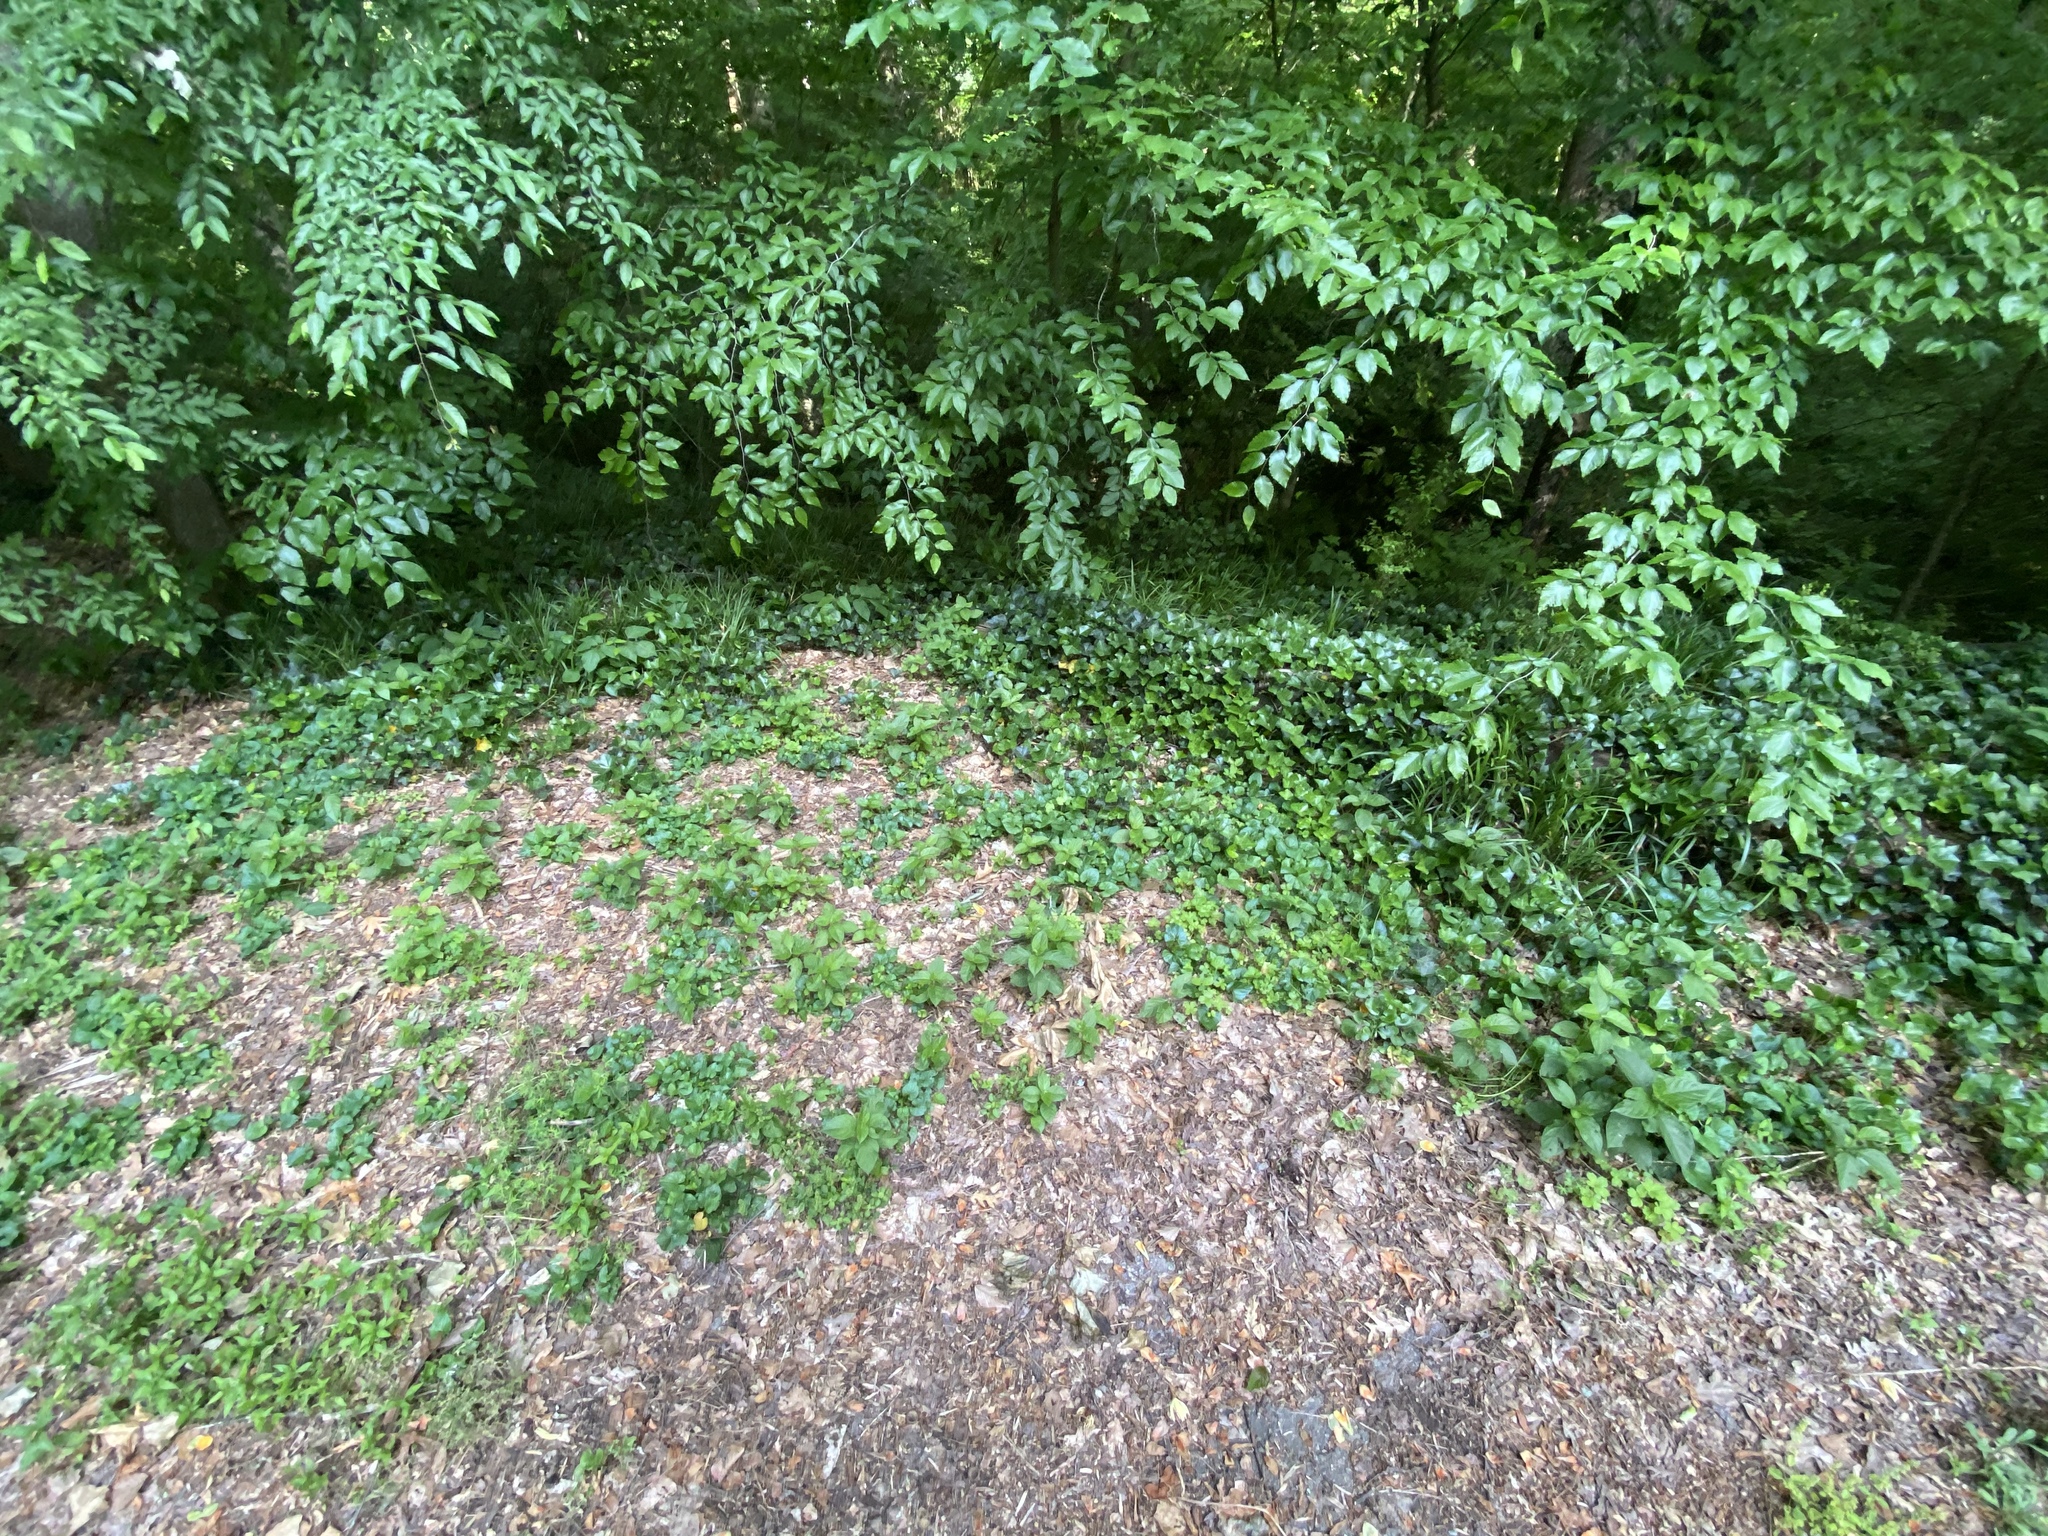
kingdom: Plantae
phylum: Tracheophyta
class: Magnoliopsida
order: Caryophyllales
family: Amaranthaceae
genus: Achyranthes
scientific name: Achyranthes bidentata
